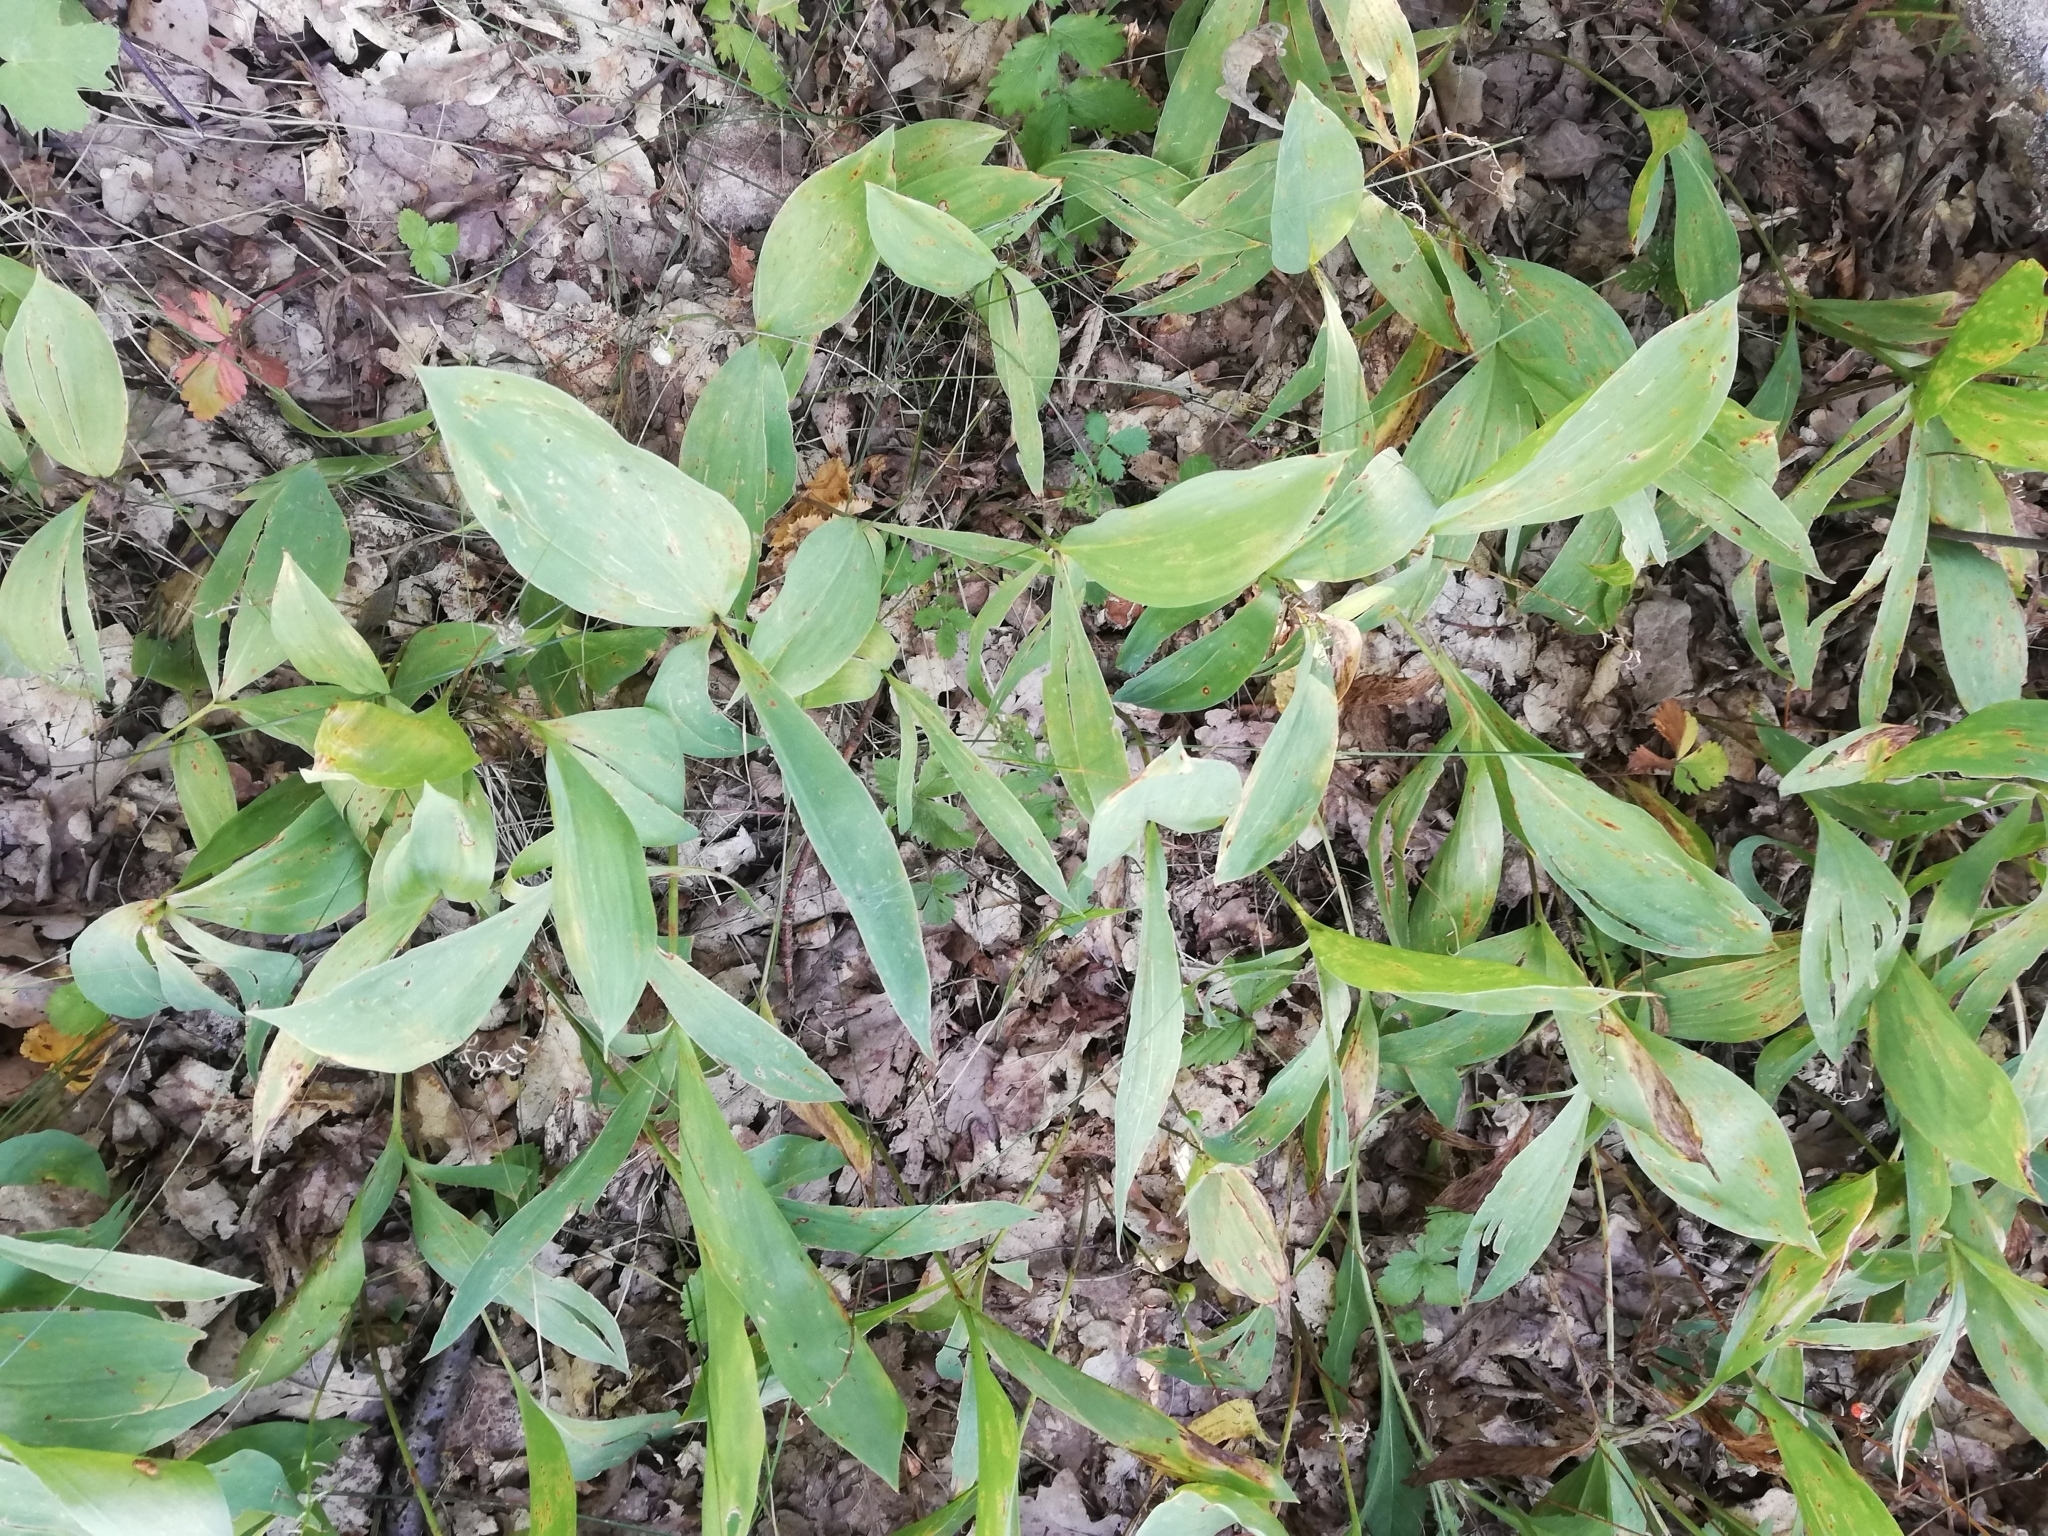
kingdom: Plantae
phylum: Tracheophyta
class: Liliopsida
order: Asparagales
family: Asparagaceae
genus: Convallaria
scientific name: Convallaria majalis
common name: Lily-of-the-valley
